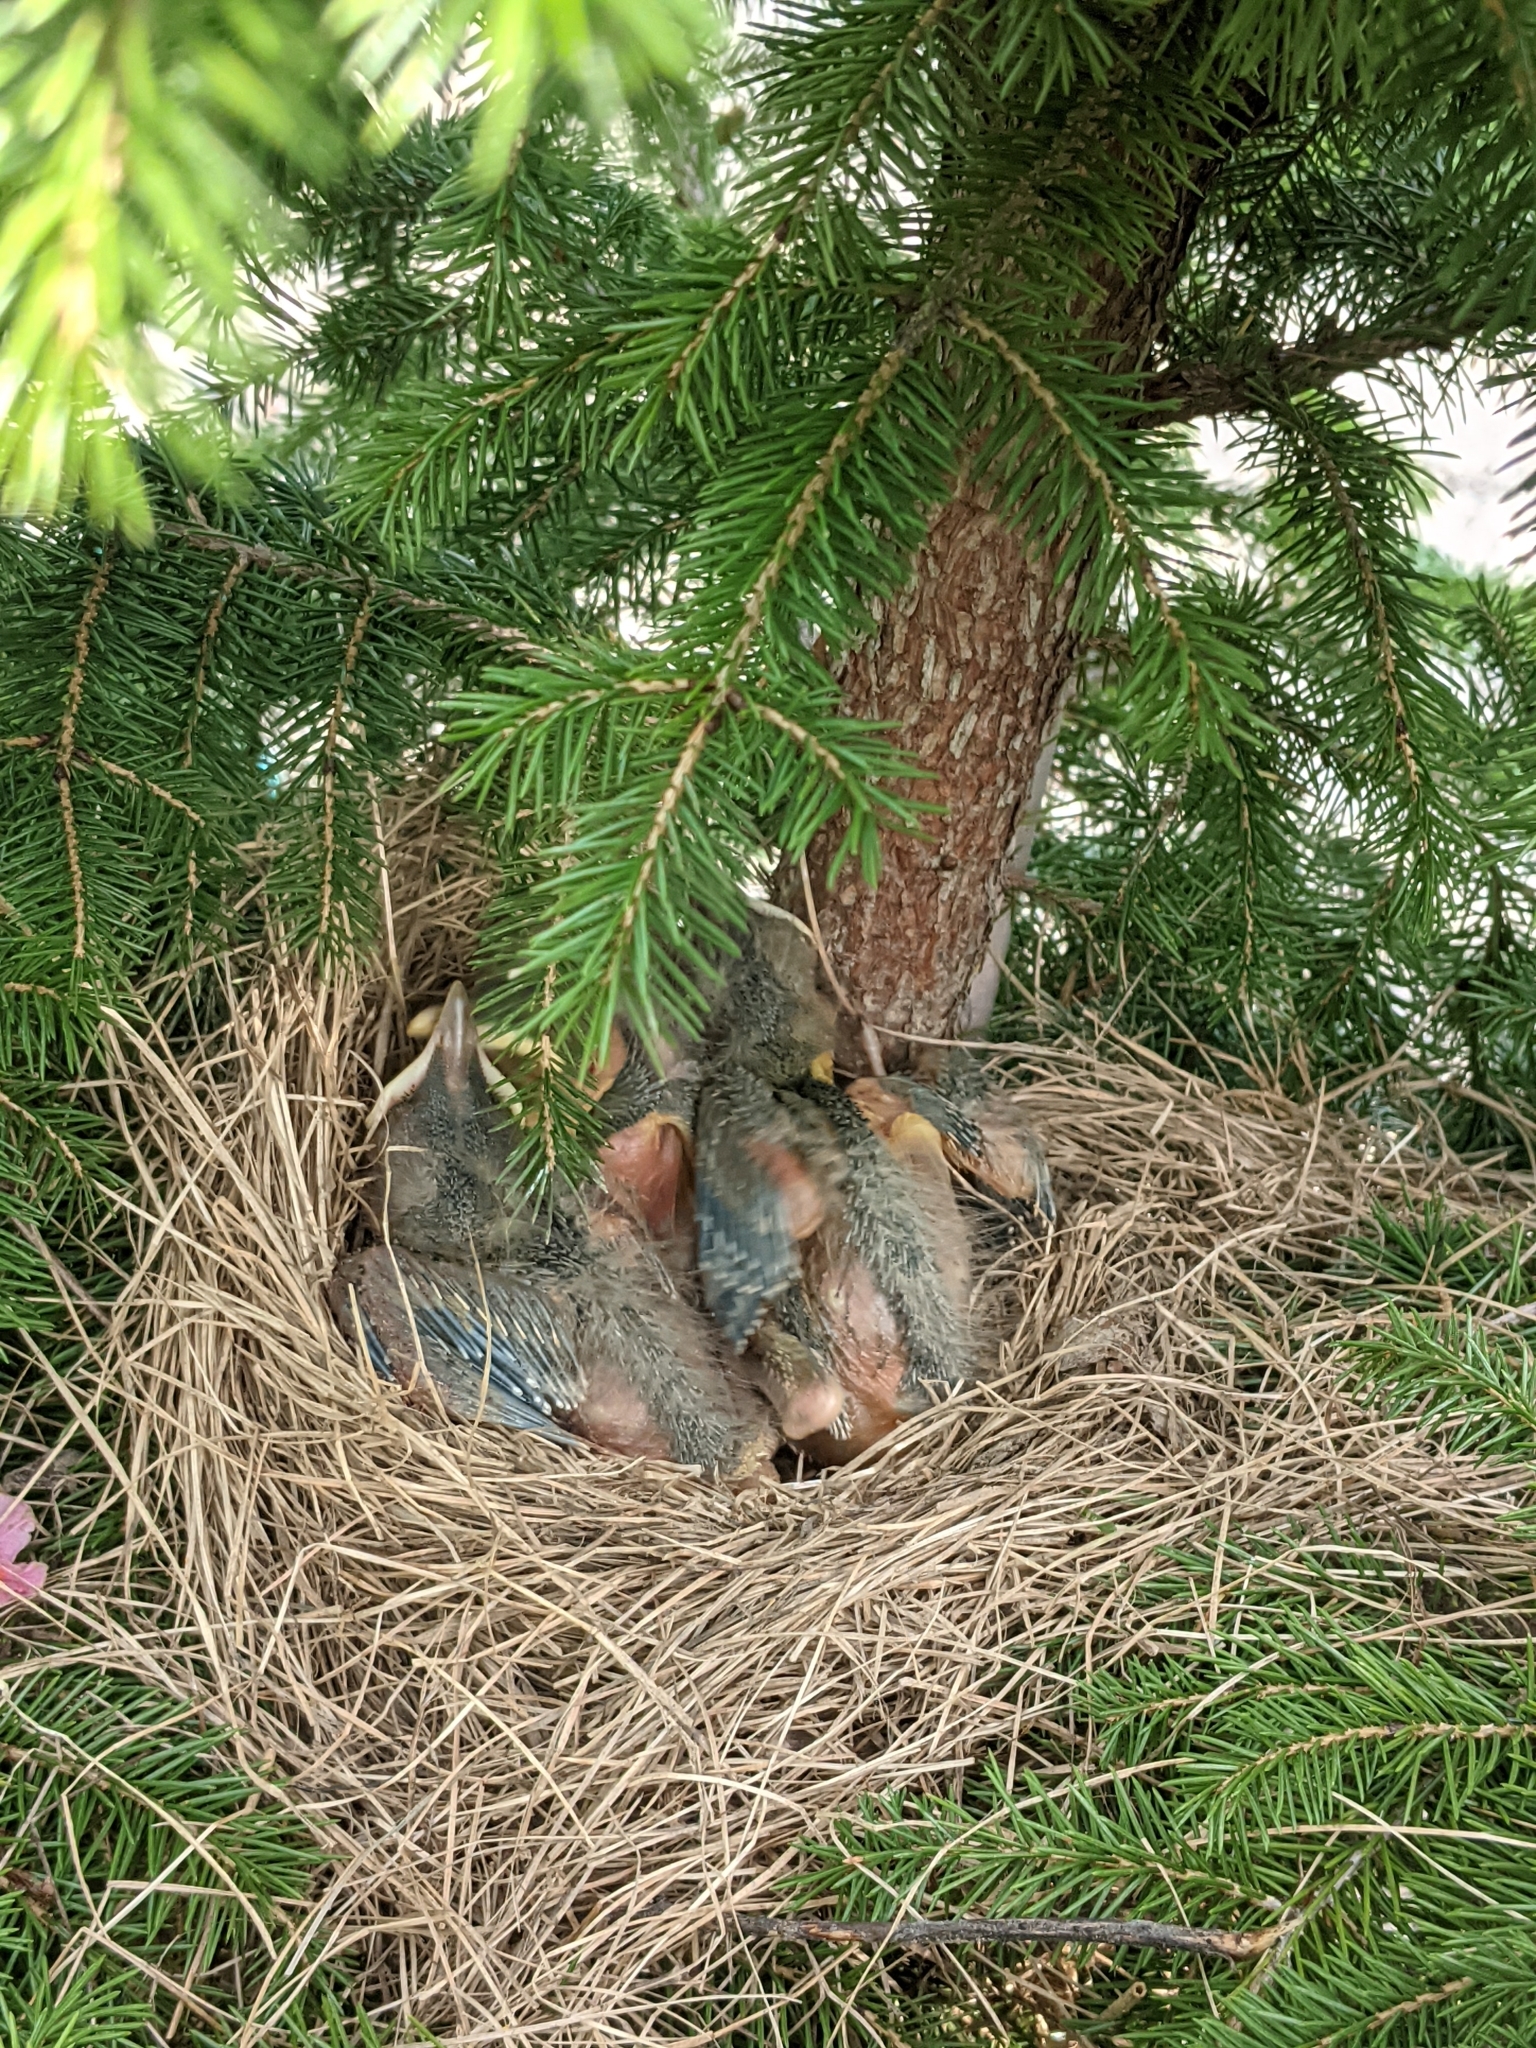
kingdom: Animalia
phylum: Chordata
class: Aves
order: Passeriformes
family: Turdidae
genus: Turdus
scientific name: Turdus migratorius
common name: American robin
